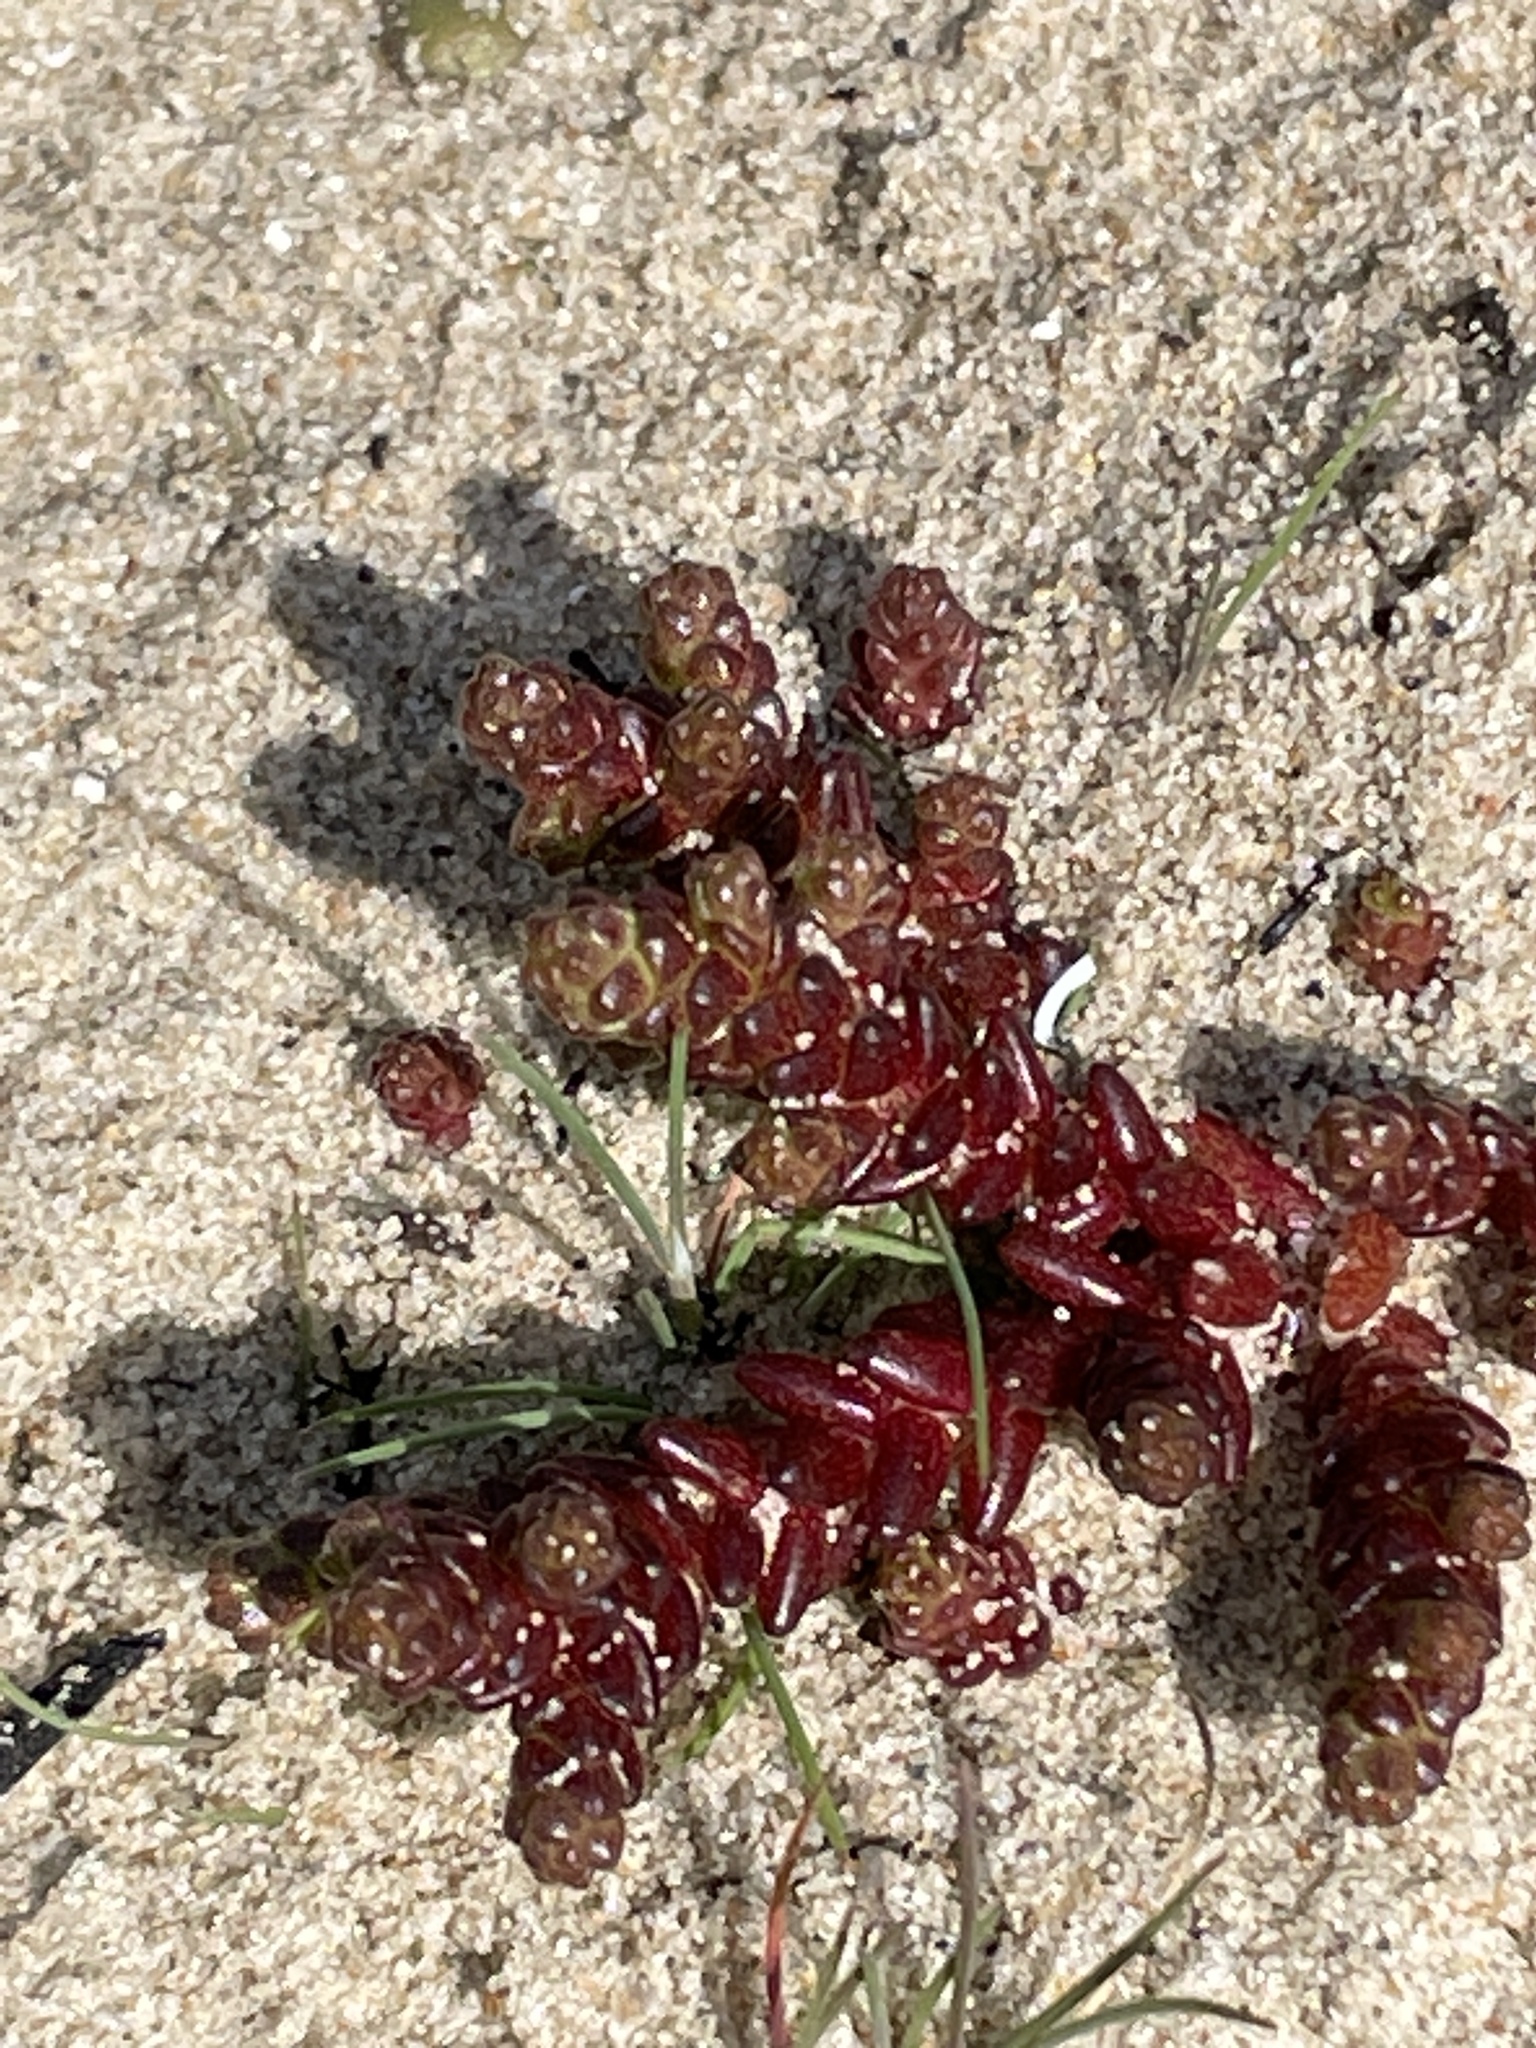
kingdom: Plantae
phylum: Tracheophyta
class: Magnoliopsida
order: Saxifragales
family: Crassulaceae
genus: Sedum
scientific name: Sedum acre
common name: Biting stonecrop
